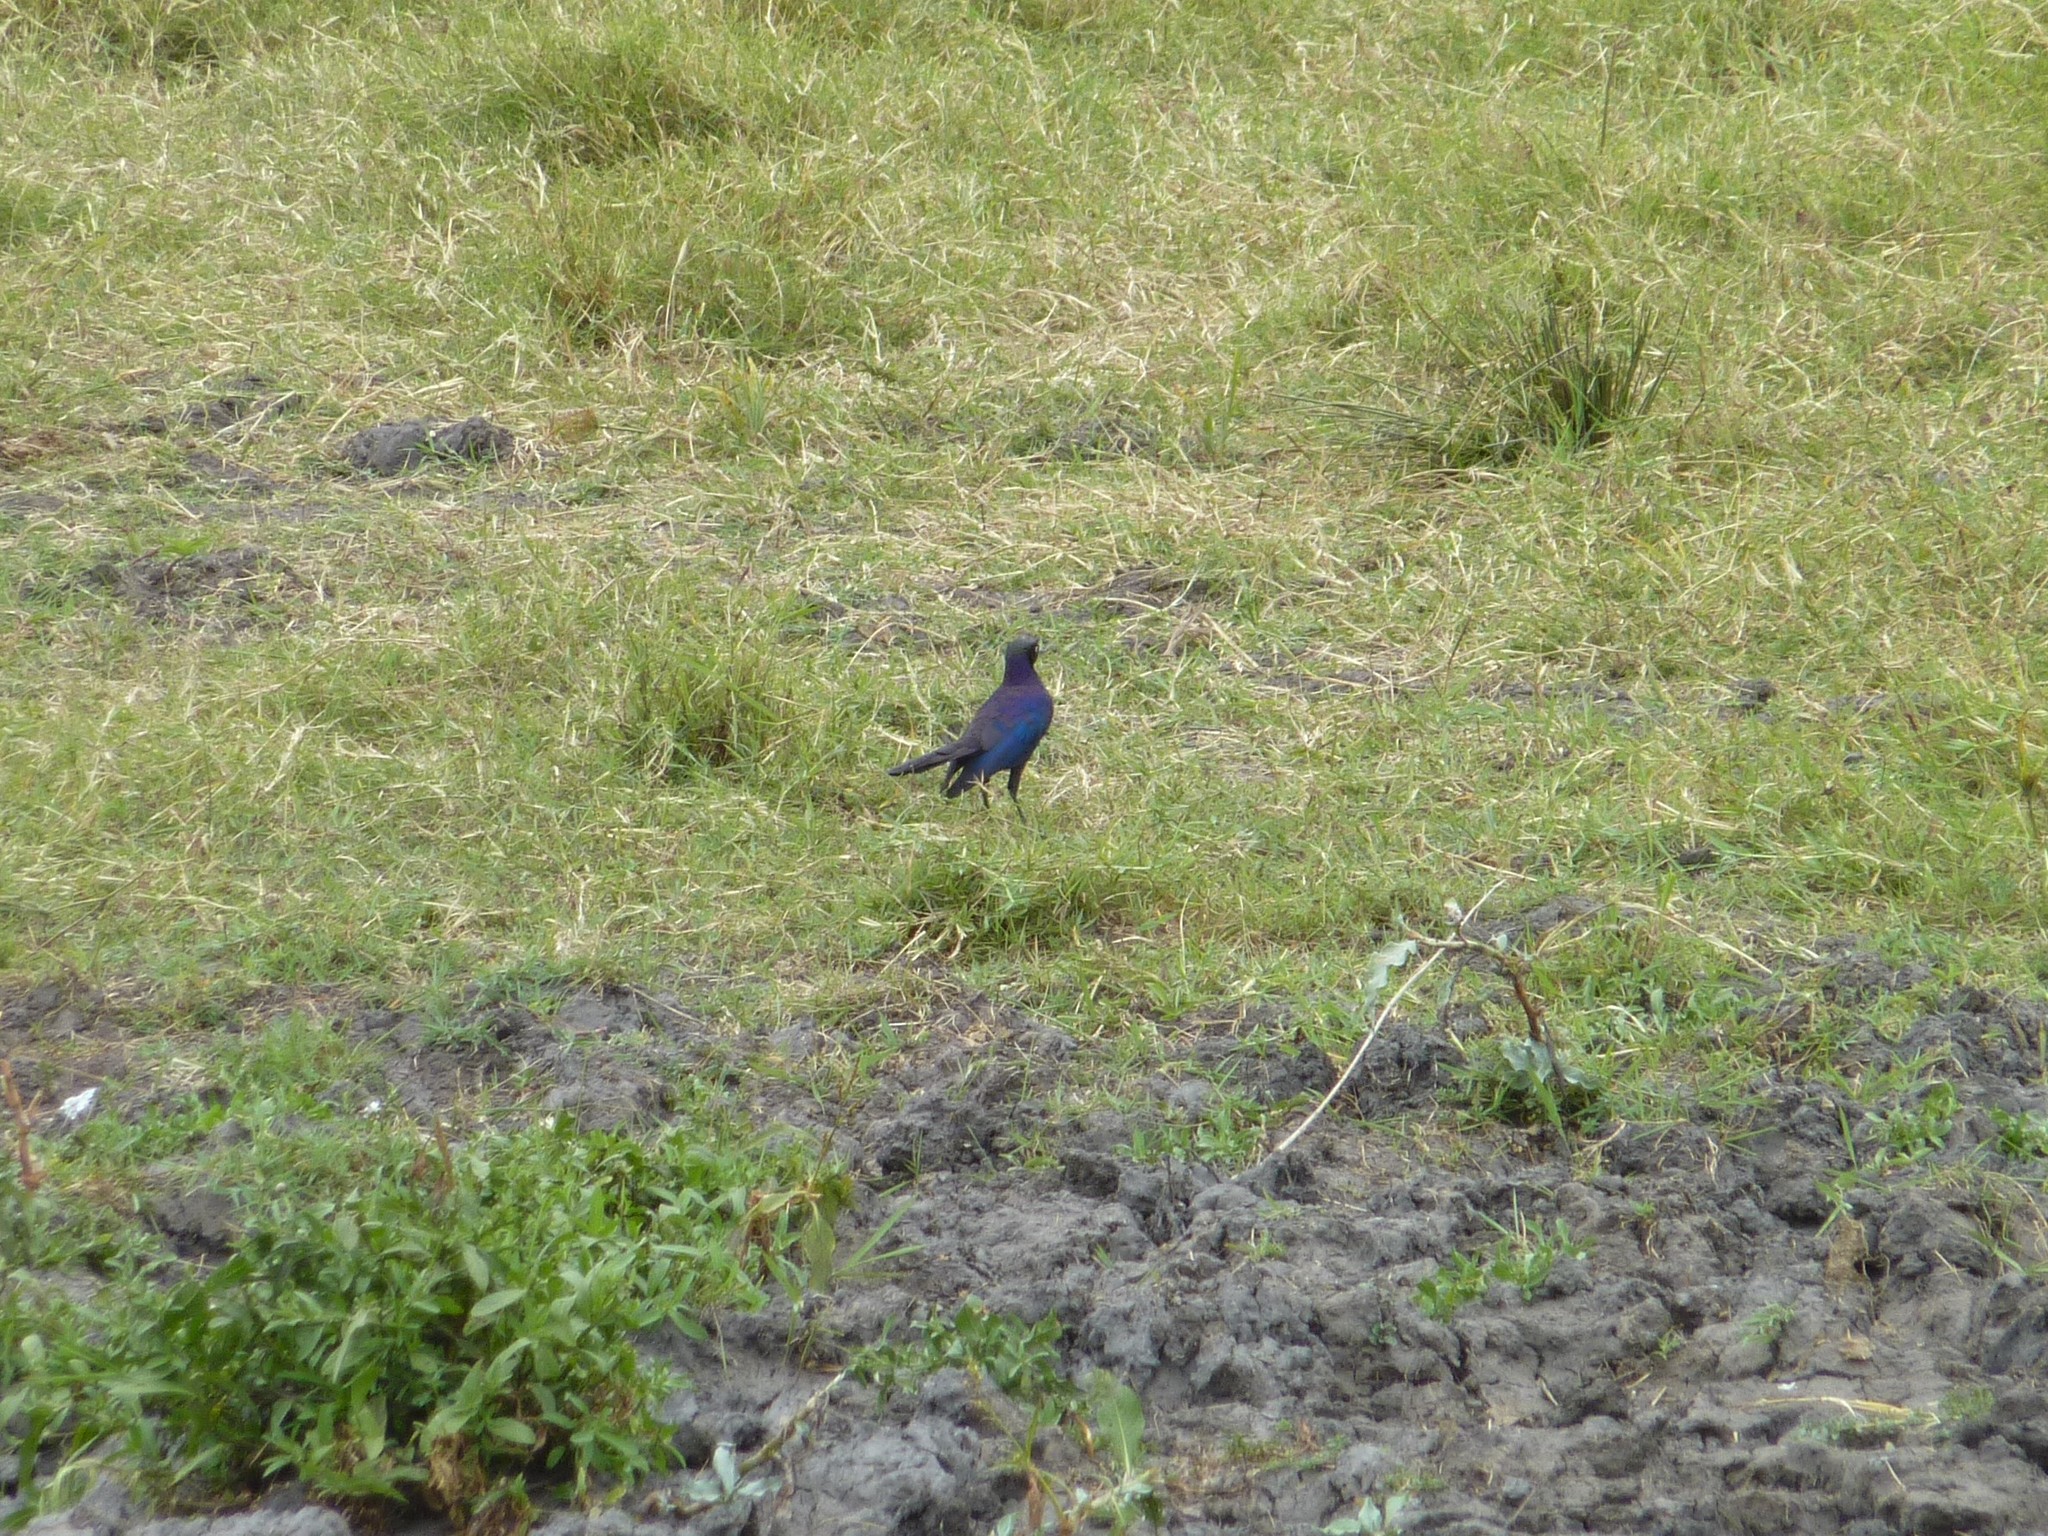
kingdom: Animalia
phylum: Chordata
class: Aves
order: Passeriformes
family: Sturnidae
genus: Lamprotornis
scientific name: Lamprotornis purpuroptera
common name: Rüppell's starling
